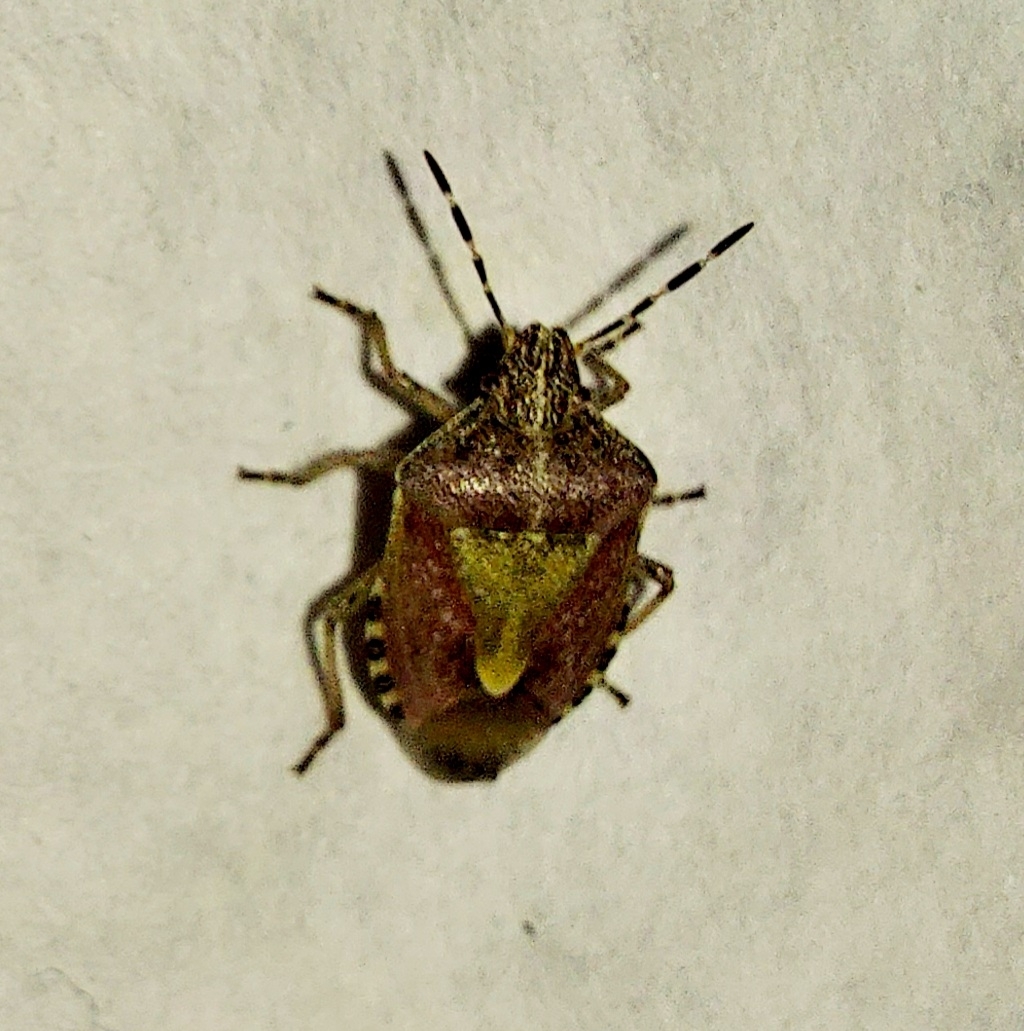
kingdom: Animalia
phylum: Arthropoda
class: Insecta
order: Hemiptera
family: Pentatomidae
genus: Dolycoris
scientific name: Dolycoris baccarum
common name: Sloe bug
